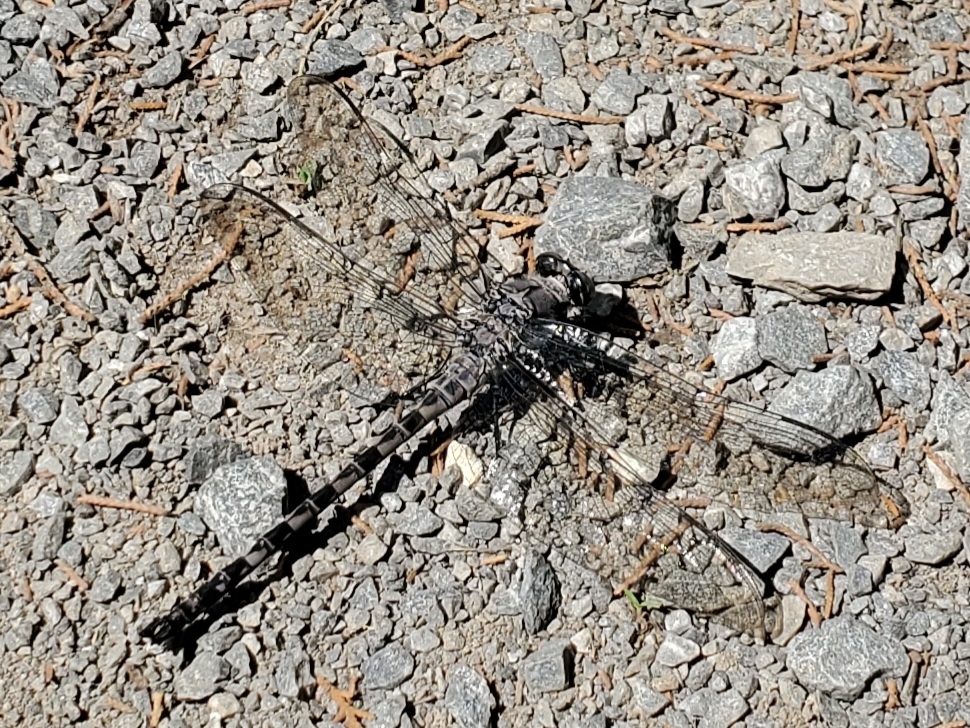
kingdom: Animalia
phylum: Arthropoda
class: Insecta
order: Odonata
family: Petaluridae
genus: Tachopteryx
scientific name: Tachopteryx thoreyi
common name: Gray petaltail
